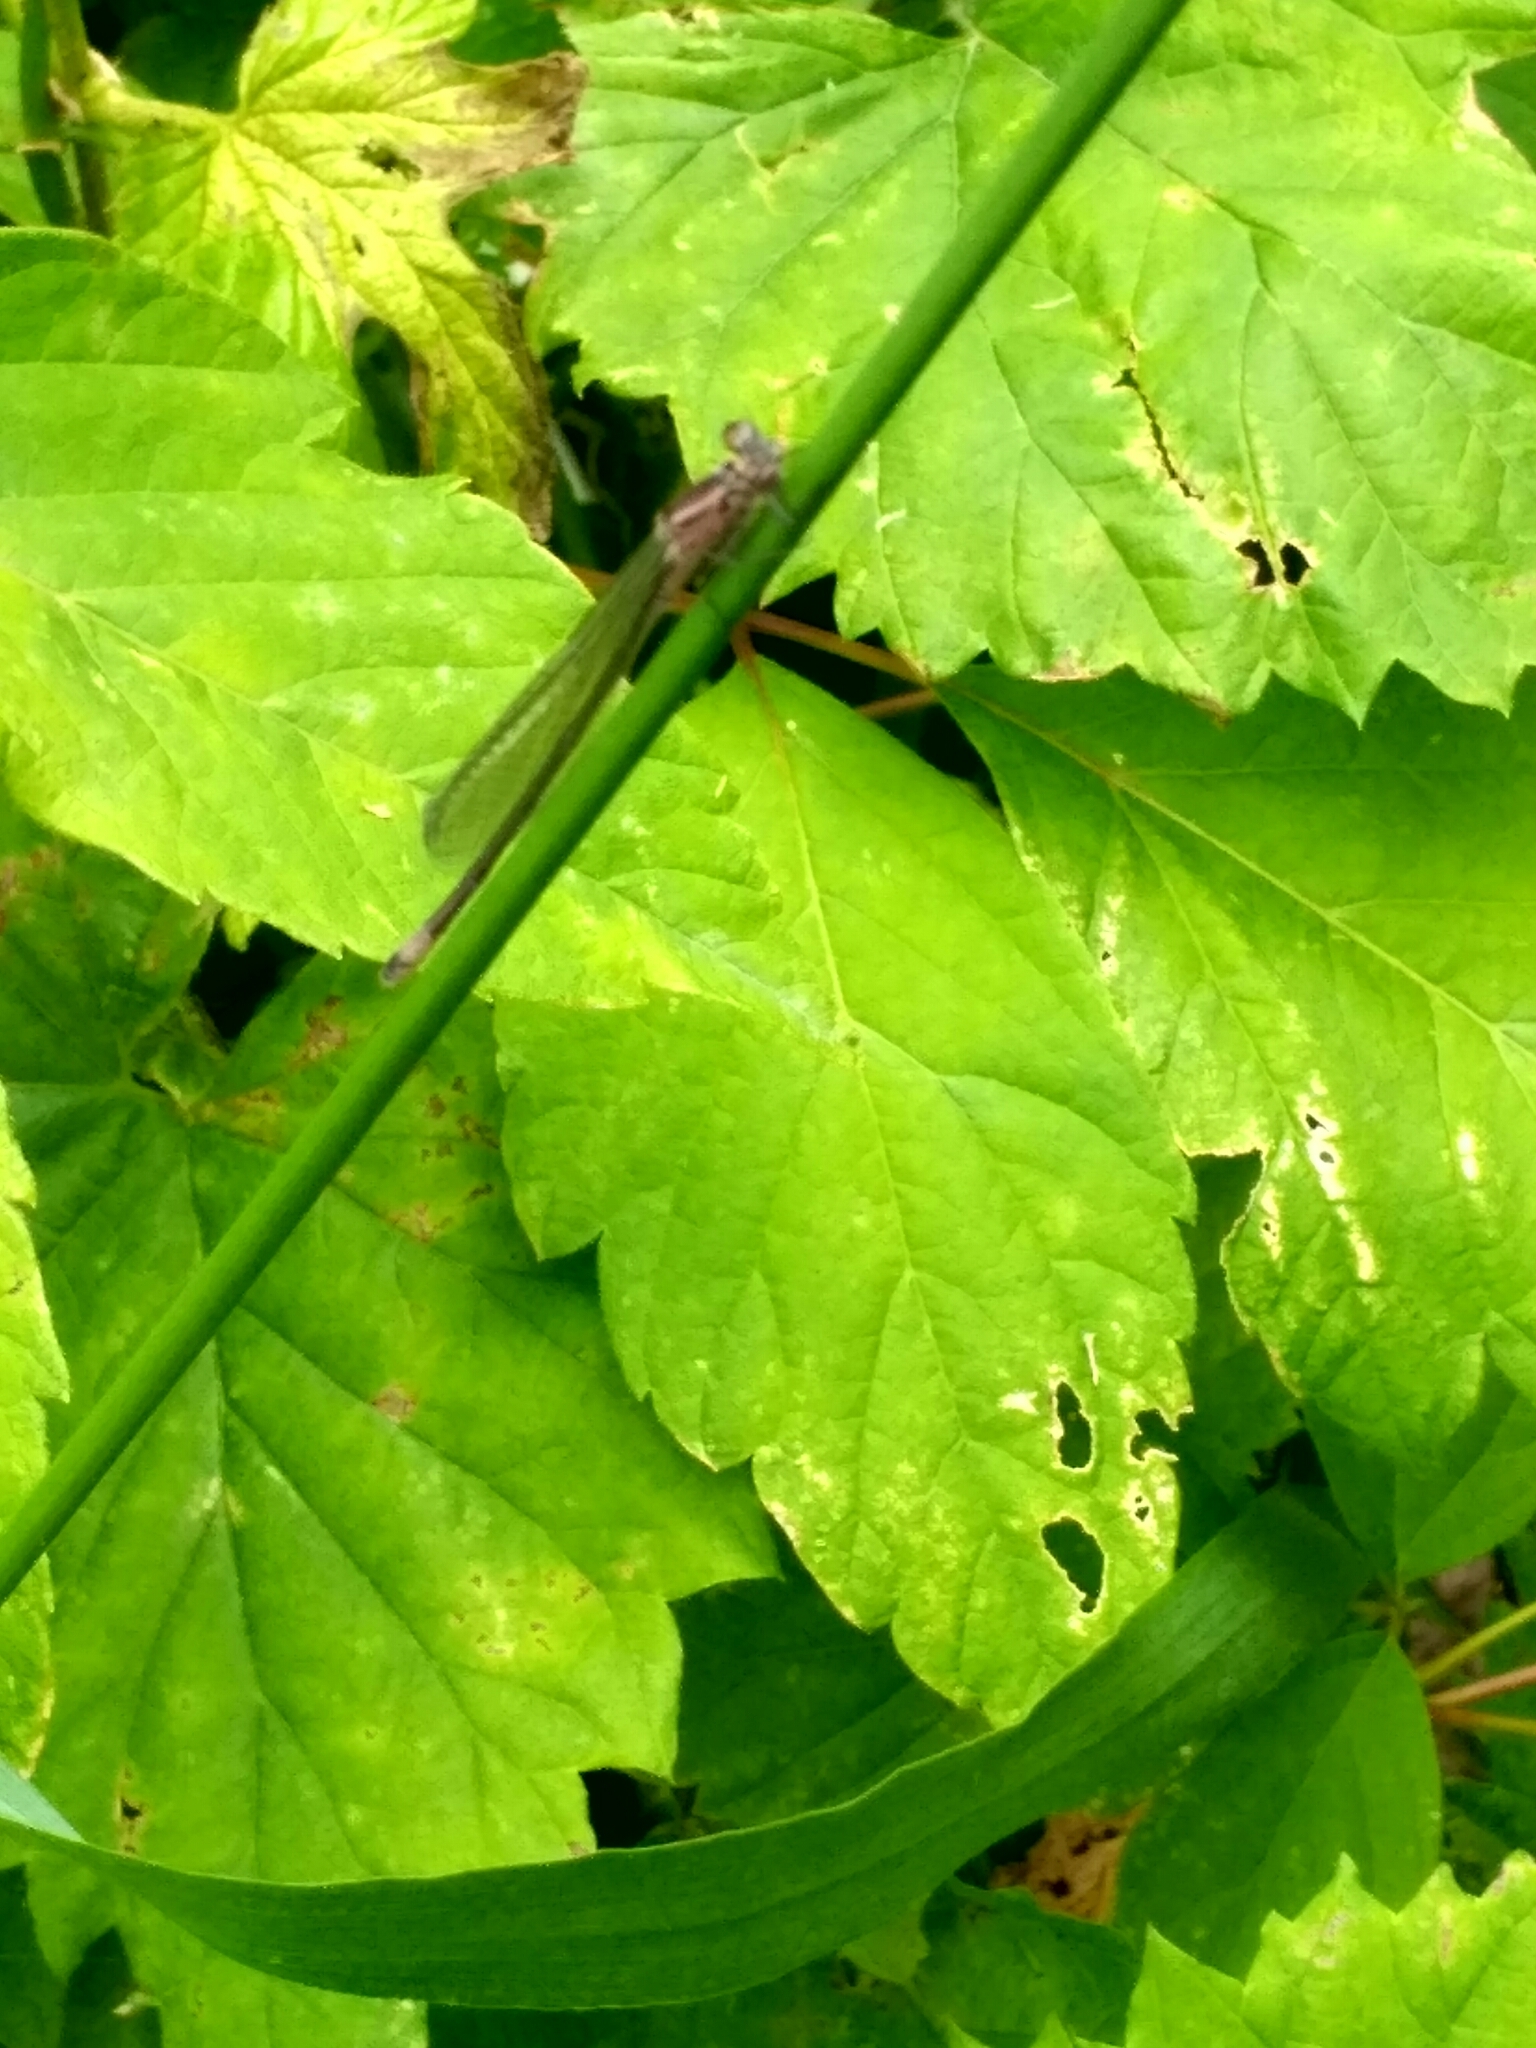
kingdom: Animalia
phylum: Arthropoda
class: Insecta
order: Odonata
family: Coenagrionidae
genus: Ischnura
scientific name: Ischnura elegans
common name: Blue-tailed damselfly
